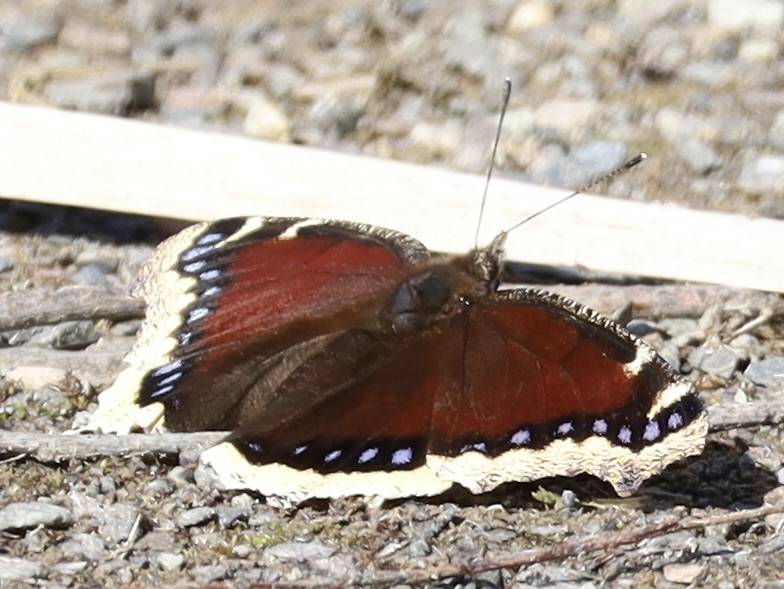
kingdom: Animalia
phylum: Arthropoda
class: Insecta
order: Lepidoptera
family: Nymphalidae
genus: Nymphalis
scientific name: Nymphalis antiopa
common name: Camberwell beauty
